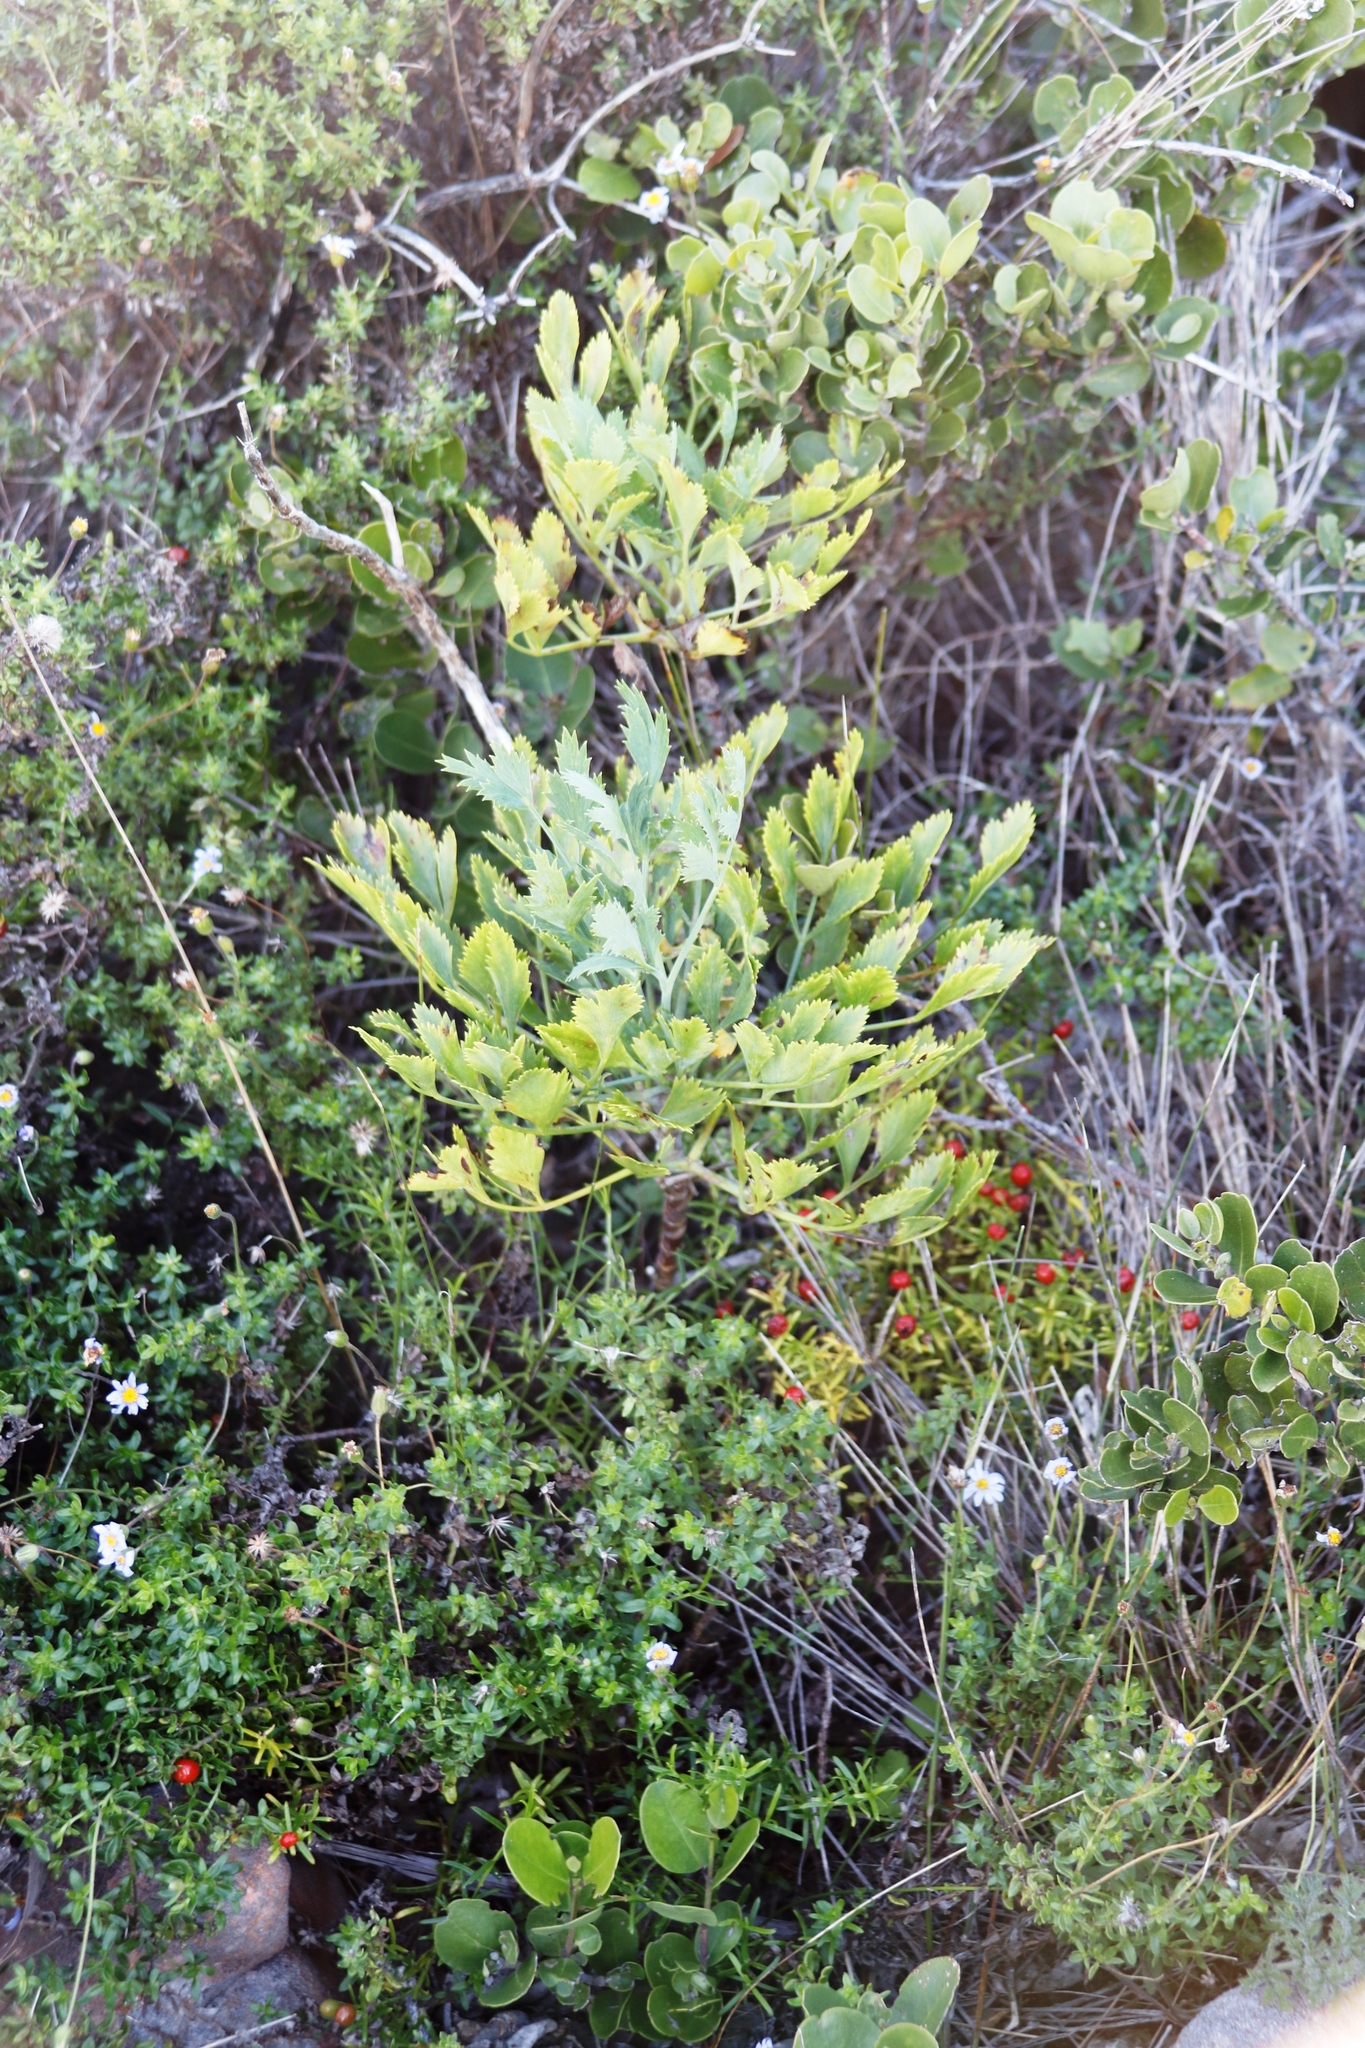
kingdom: Plantae
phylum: Tracheophyta
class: Magnoliopsida
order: Apiales
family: Apiaceae
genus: Notobubon
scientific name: Notobubon galbanum
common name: Blisterbush
